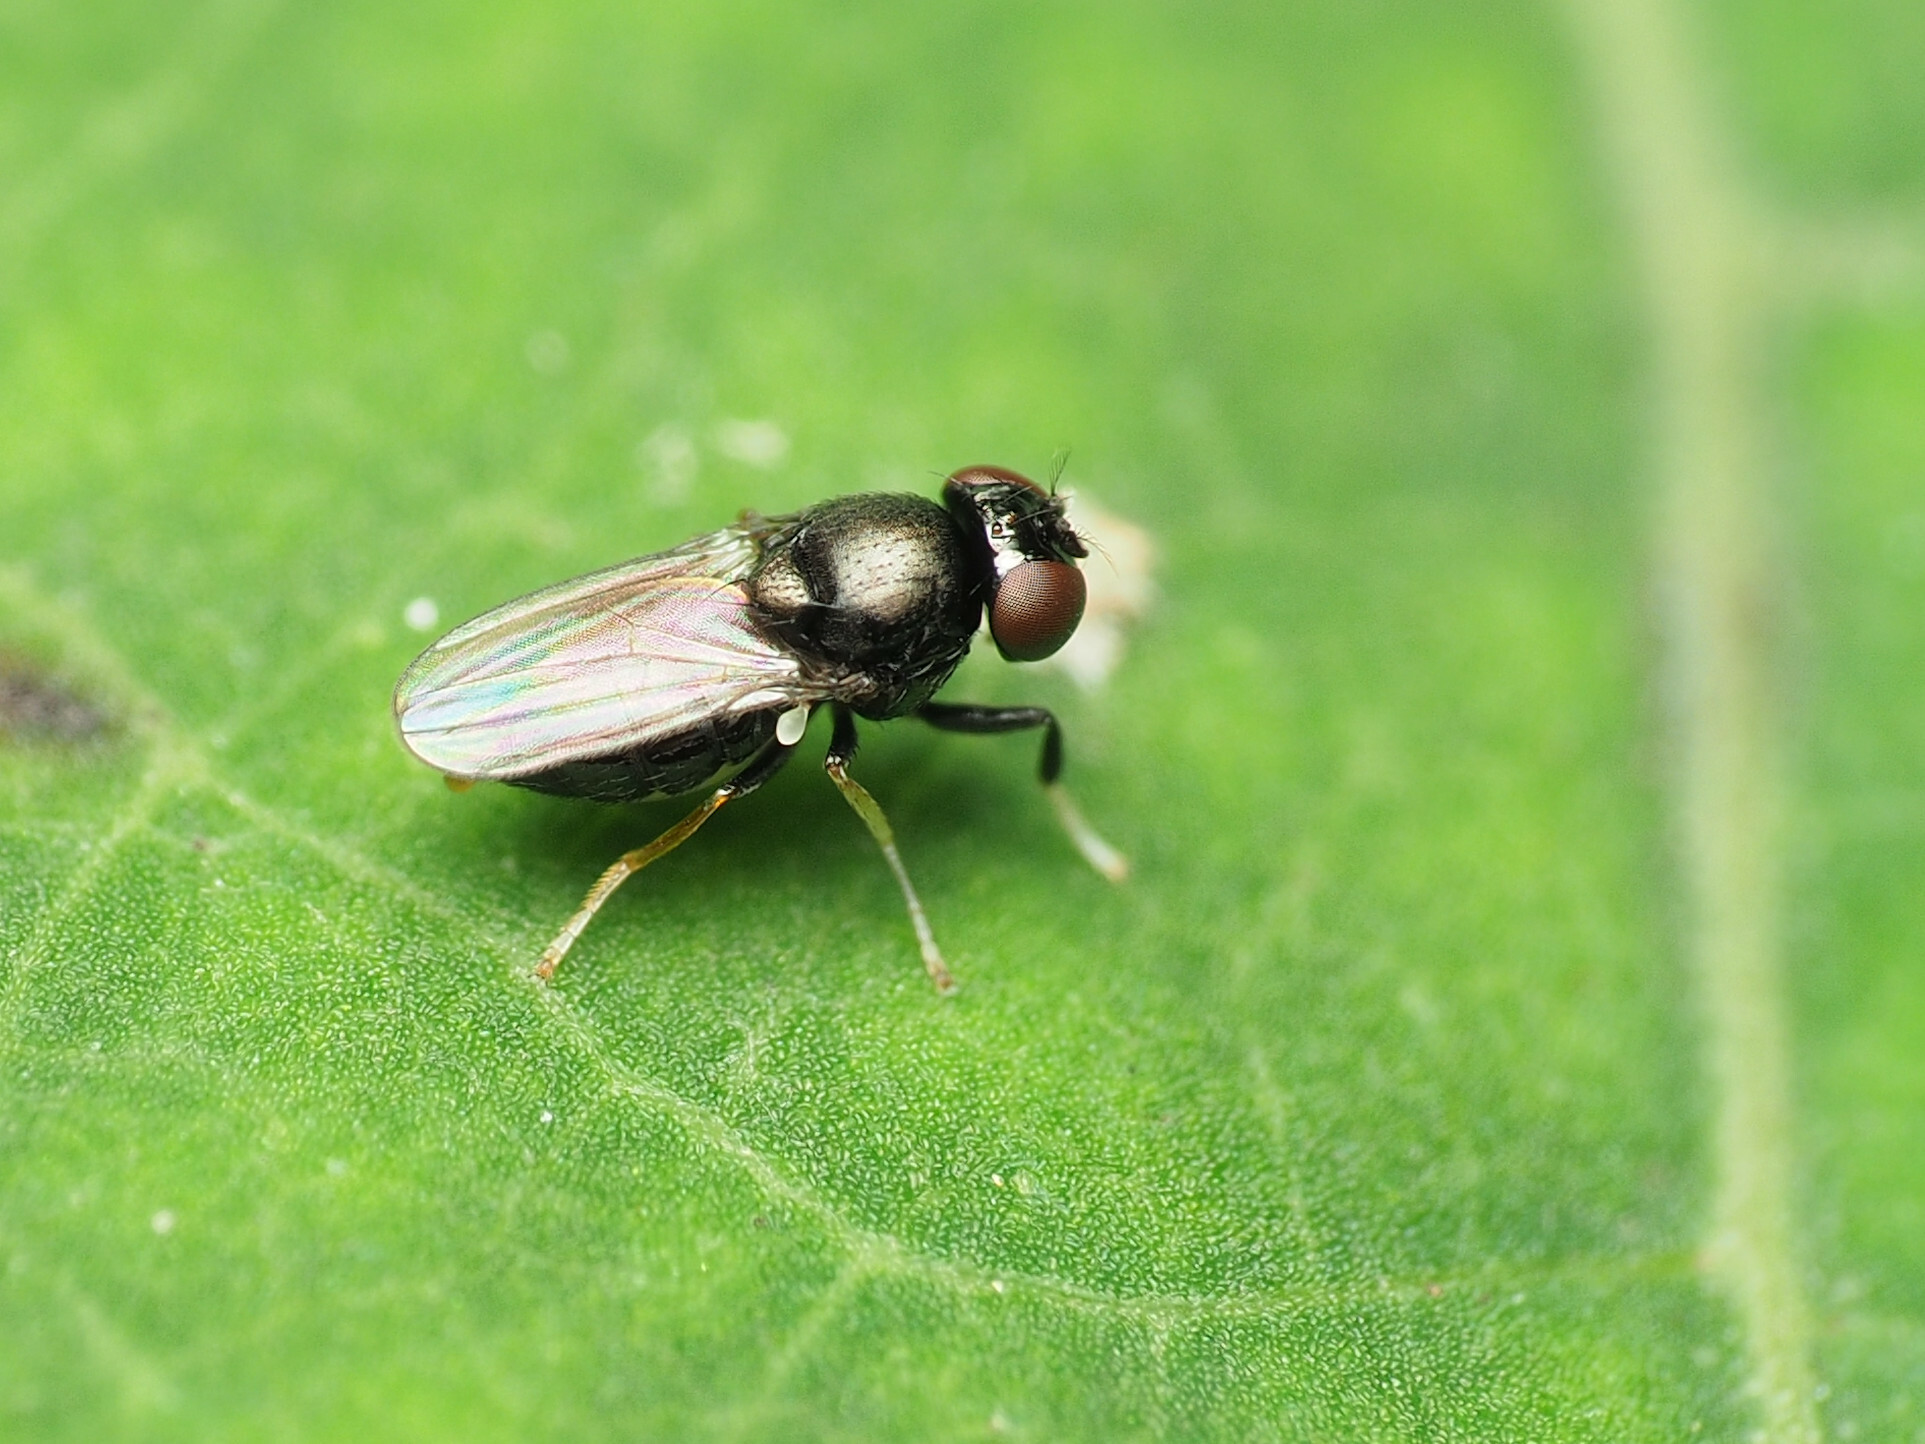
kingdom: Animalia
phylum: Arthropoda
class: Insecta
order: Diptera
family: Ephydridae
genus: Athyroglossa
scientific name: Athyroglossa glaphyropus
